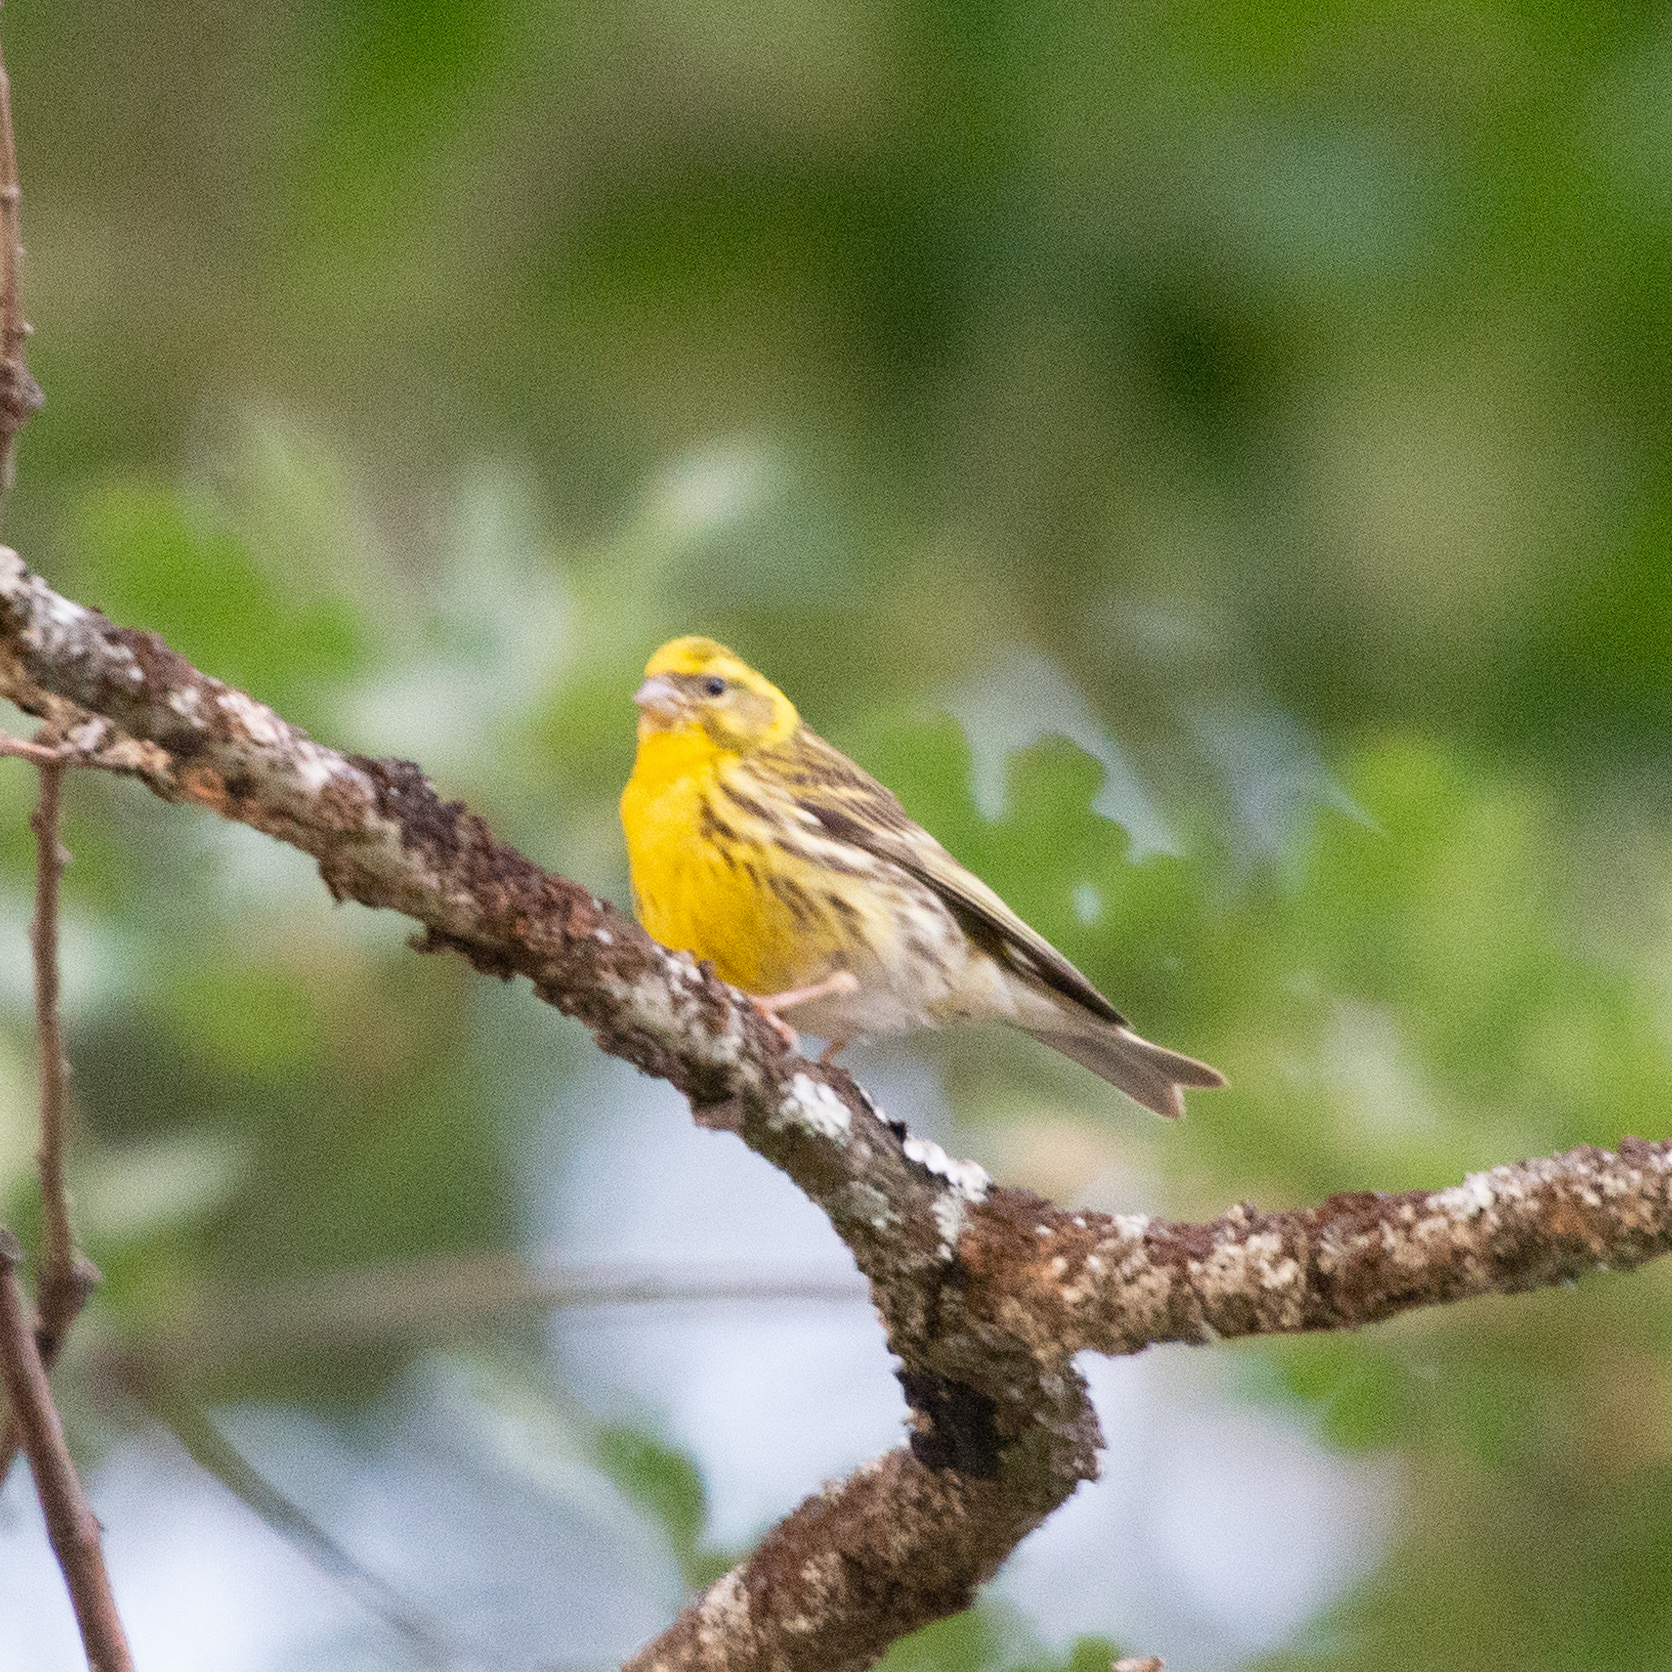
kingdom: Animalia
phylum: Chordata
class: Aves
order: Passeriformes
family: Fringillidae
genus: Serinus
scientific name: Serinus serinus
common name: European serin
